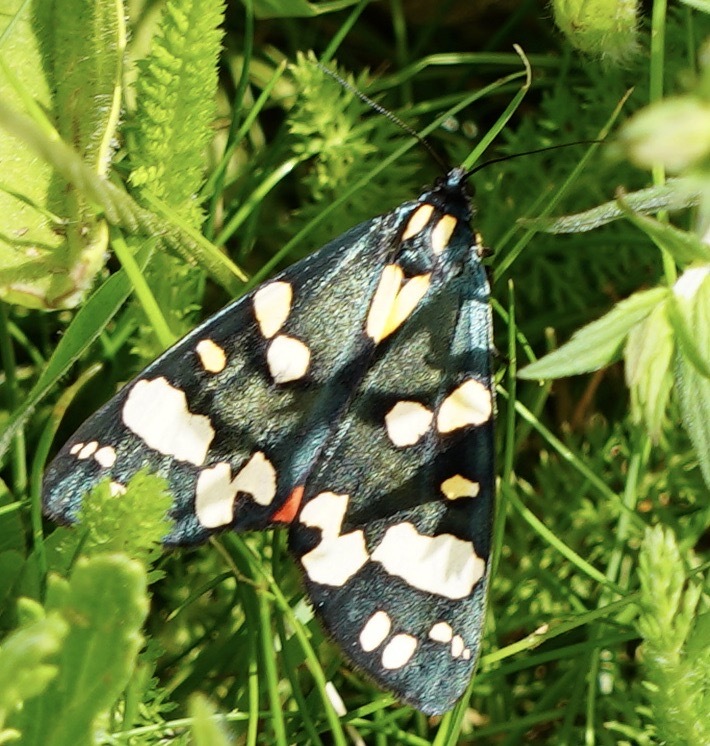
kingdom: Animalia
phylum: Arthropoda
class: Insecta
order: Lepidoptera
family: Erebidae
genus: Callimorpha
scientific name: Callimorpha dominula
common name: Scarlet tiger
